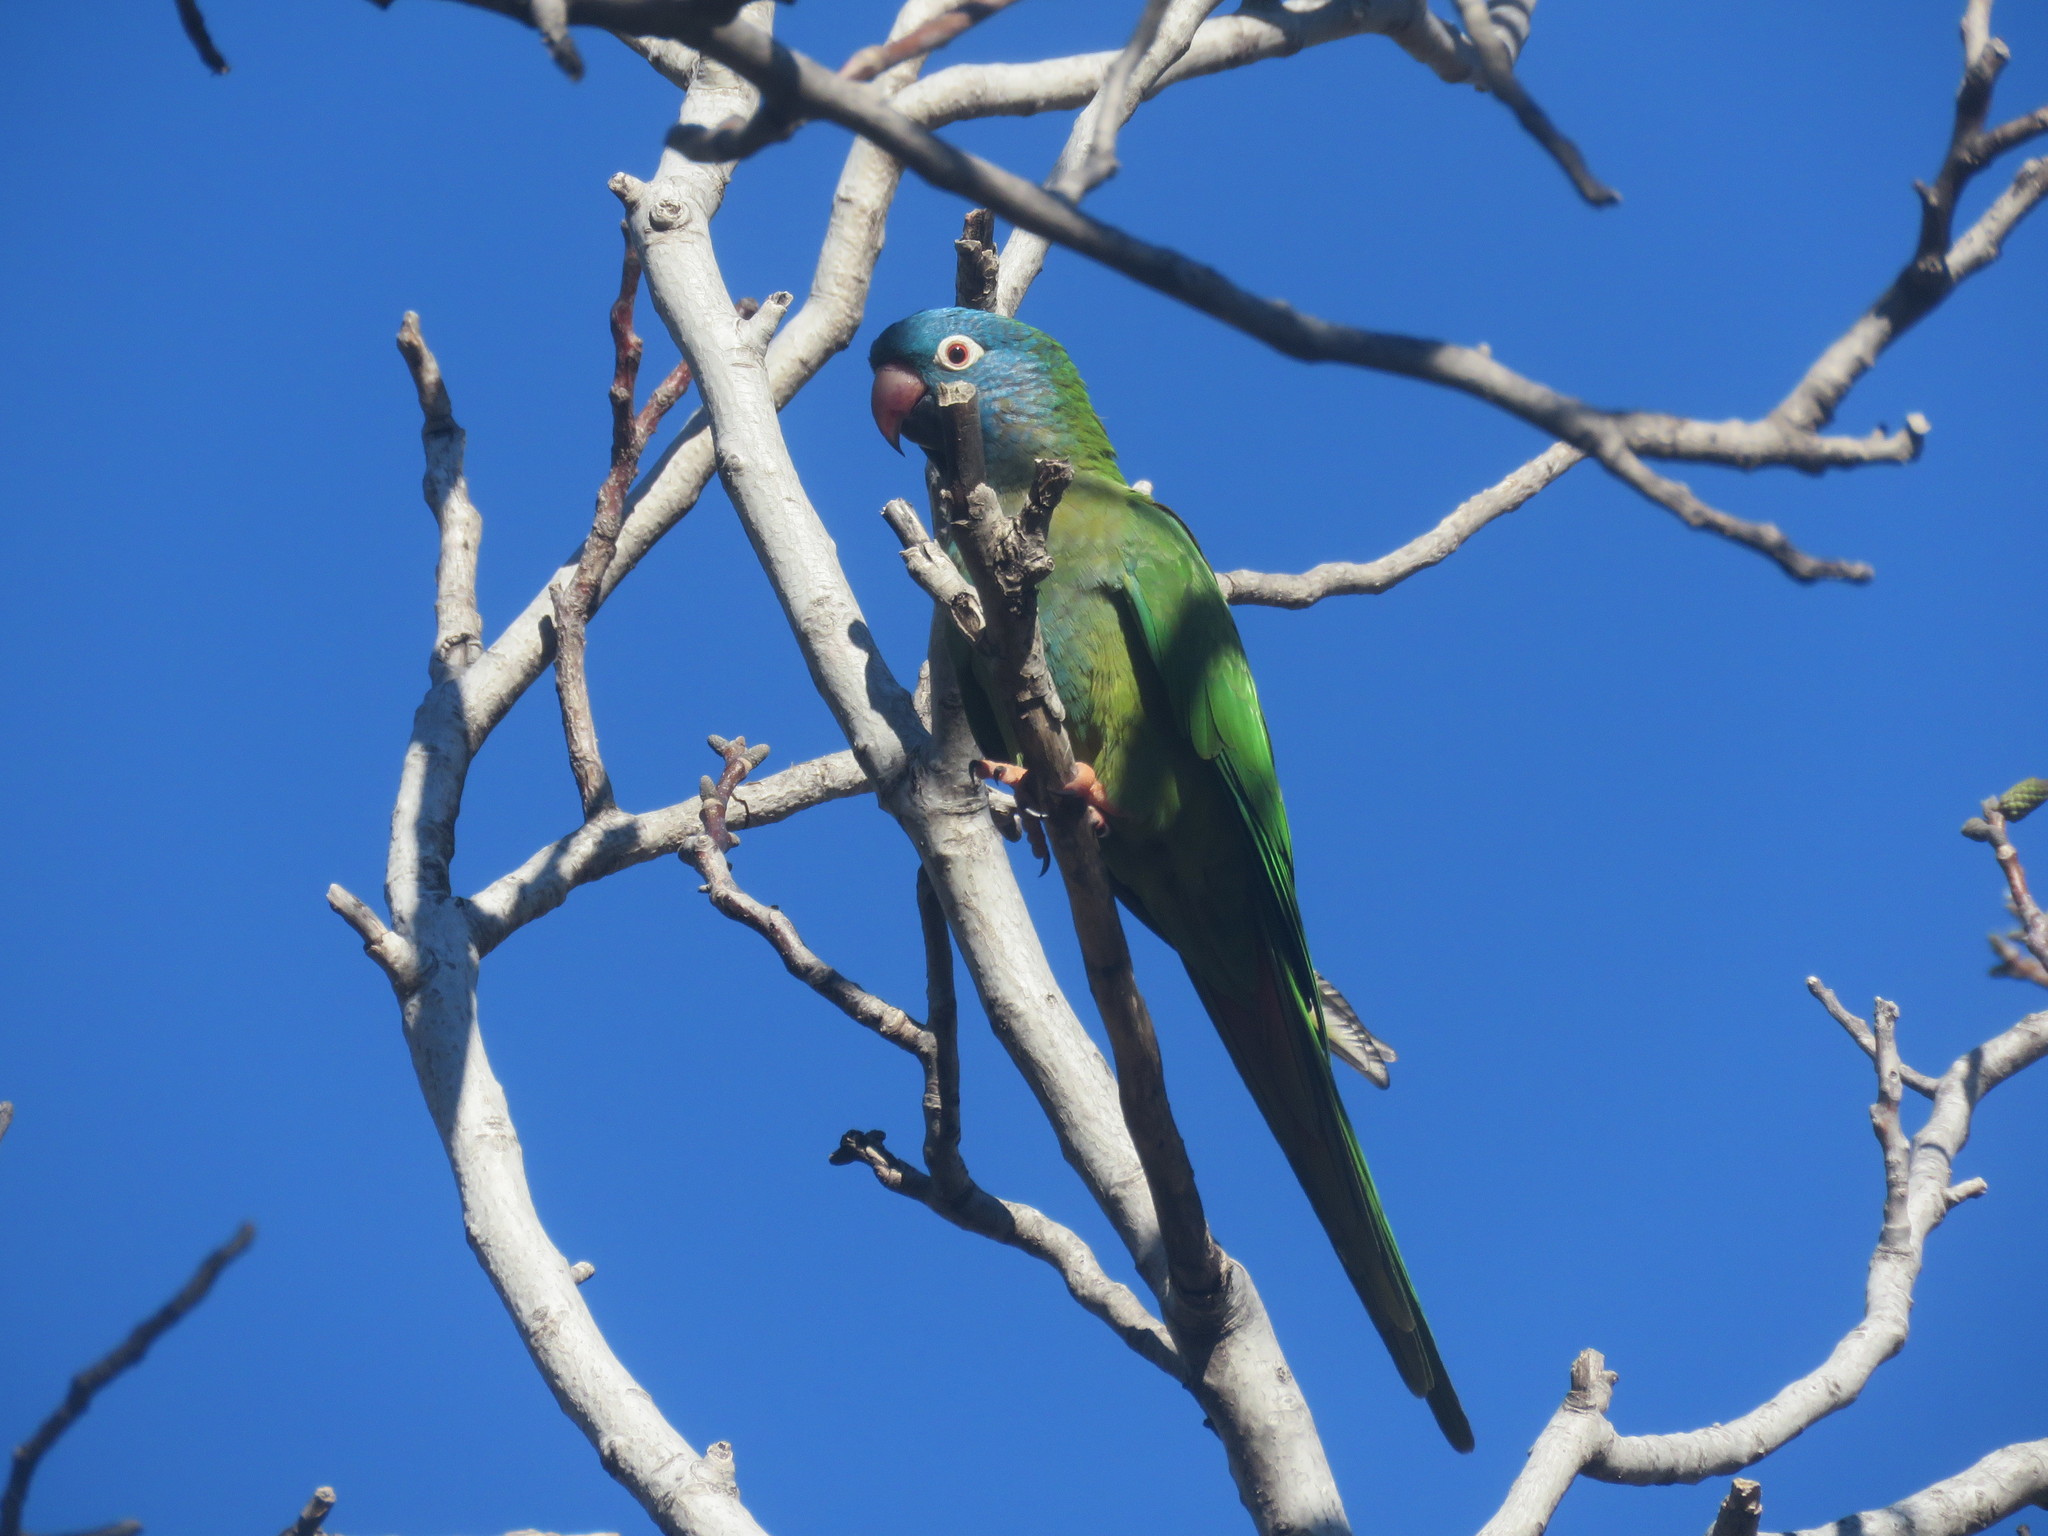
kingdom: Animalia
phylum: Chordata
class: Aves
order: Psittaciformes
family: Psittacidae
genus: Aratinga
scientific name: Aratinga acuticaudata
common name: Blue-crowned parakeet
